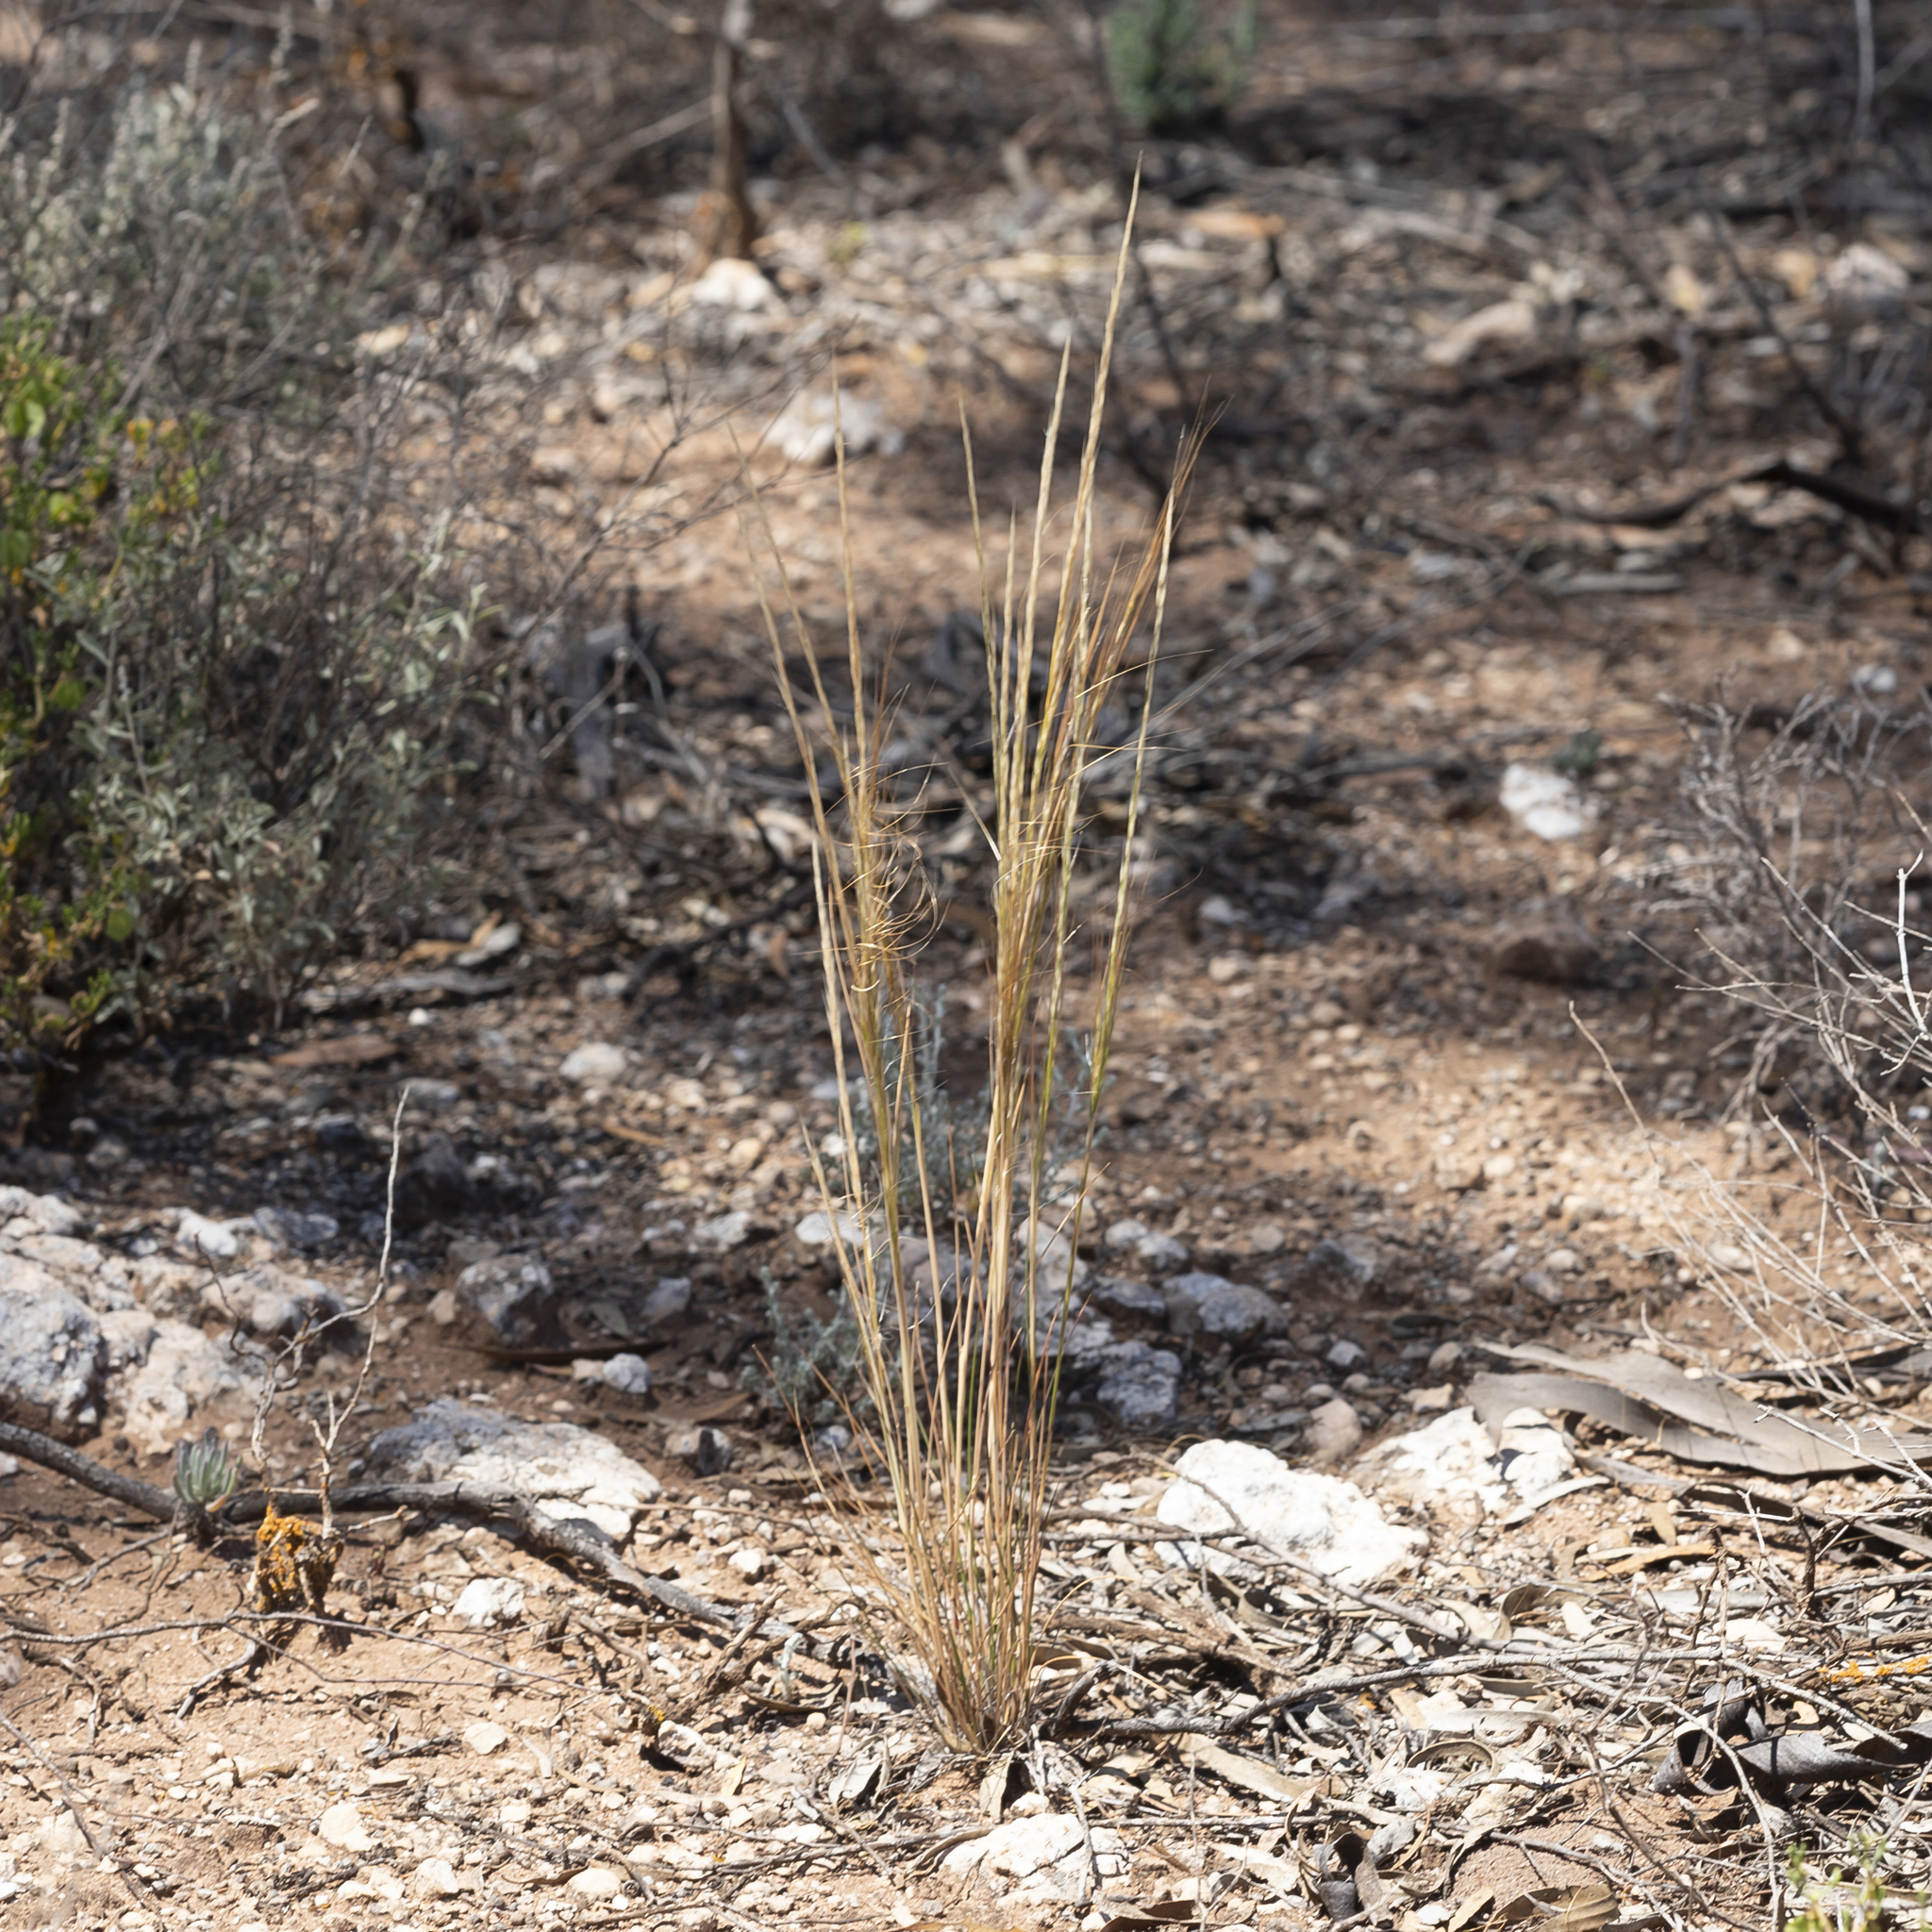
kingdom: Plantae
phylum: Tracheophyta
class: Liliopsida
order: Poales
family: Poaceae
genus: Austrostipa
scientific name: Austrostipa nitida
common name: Balcarra grass
